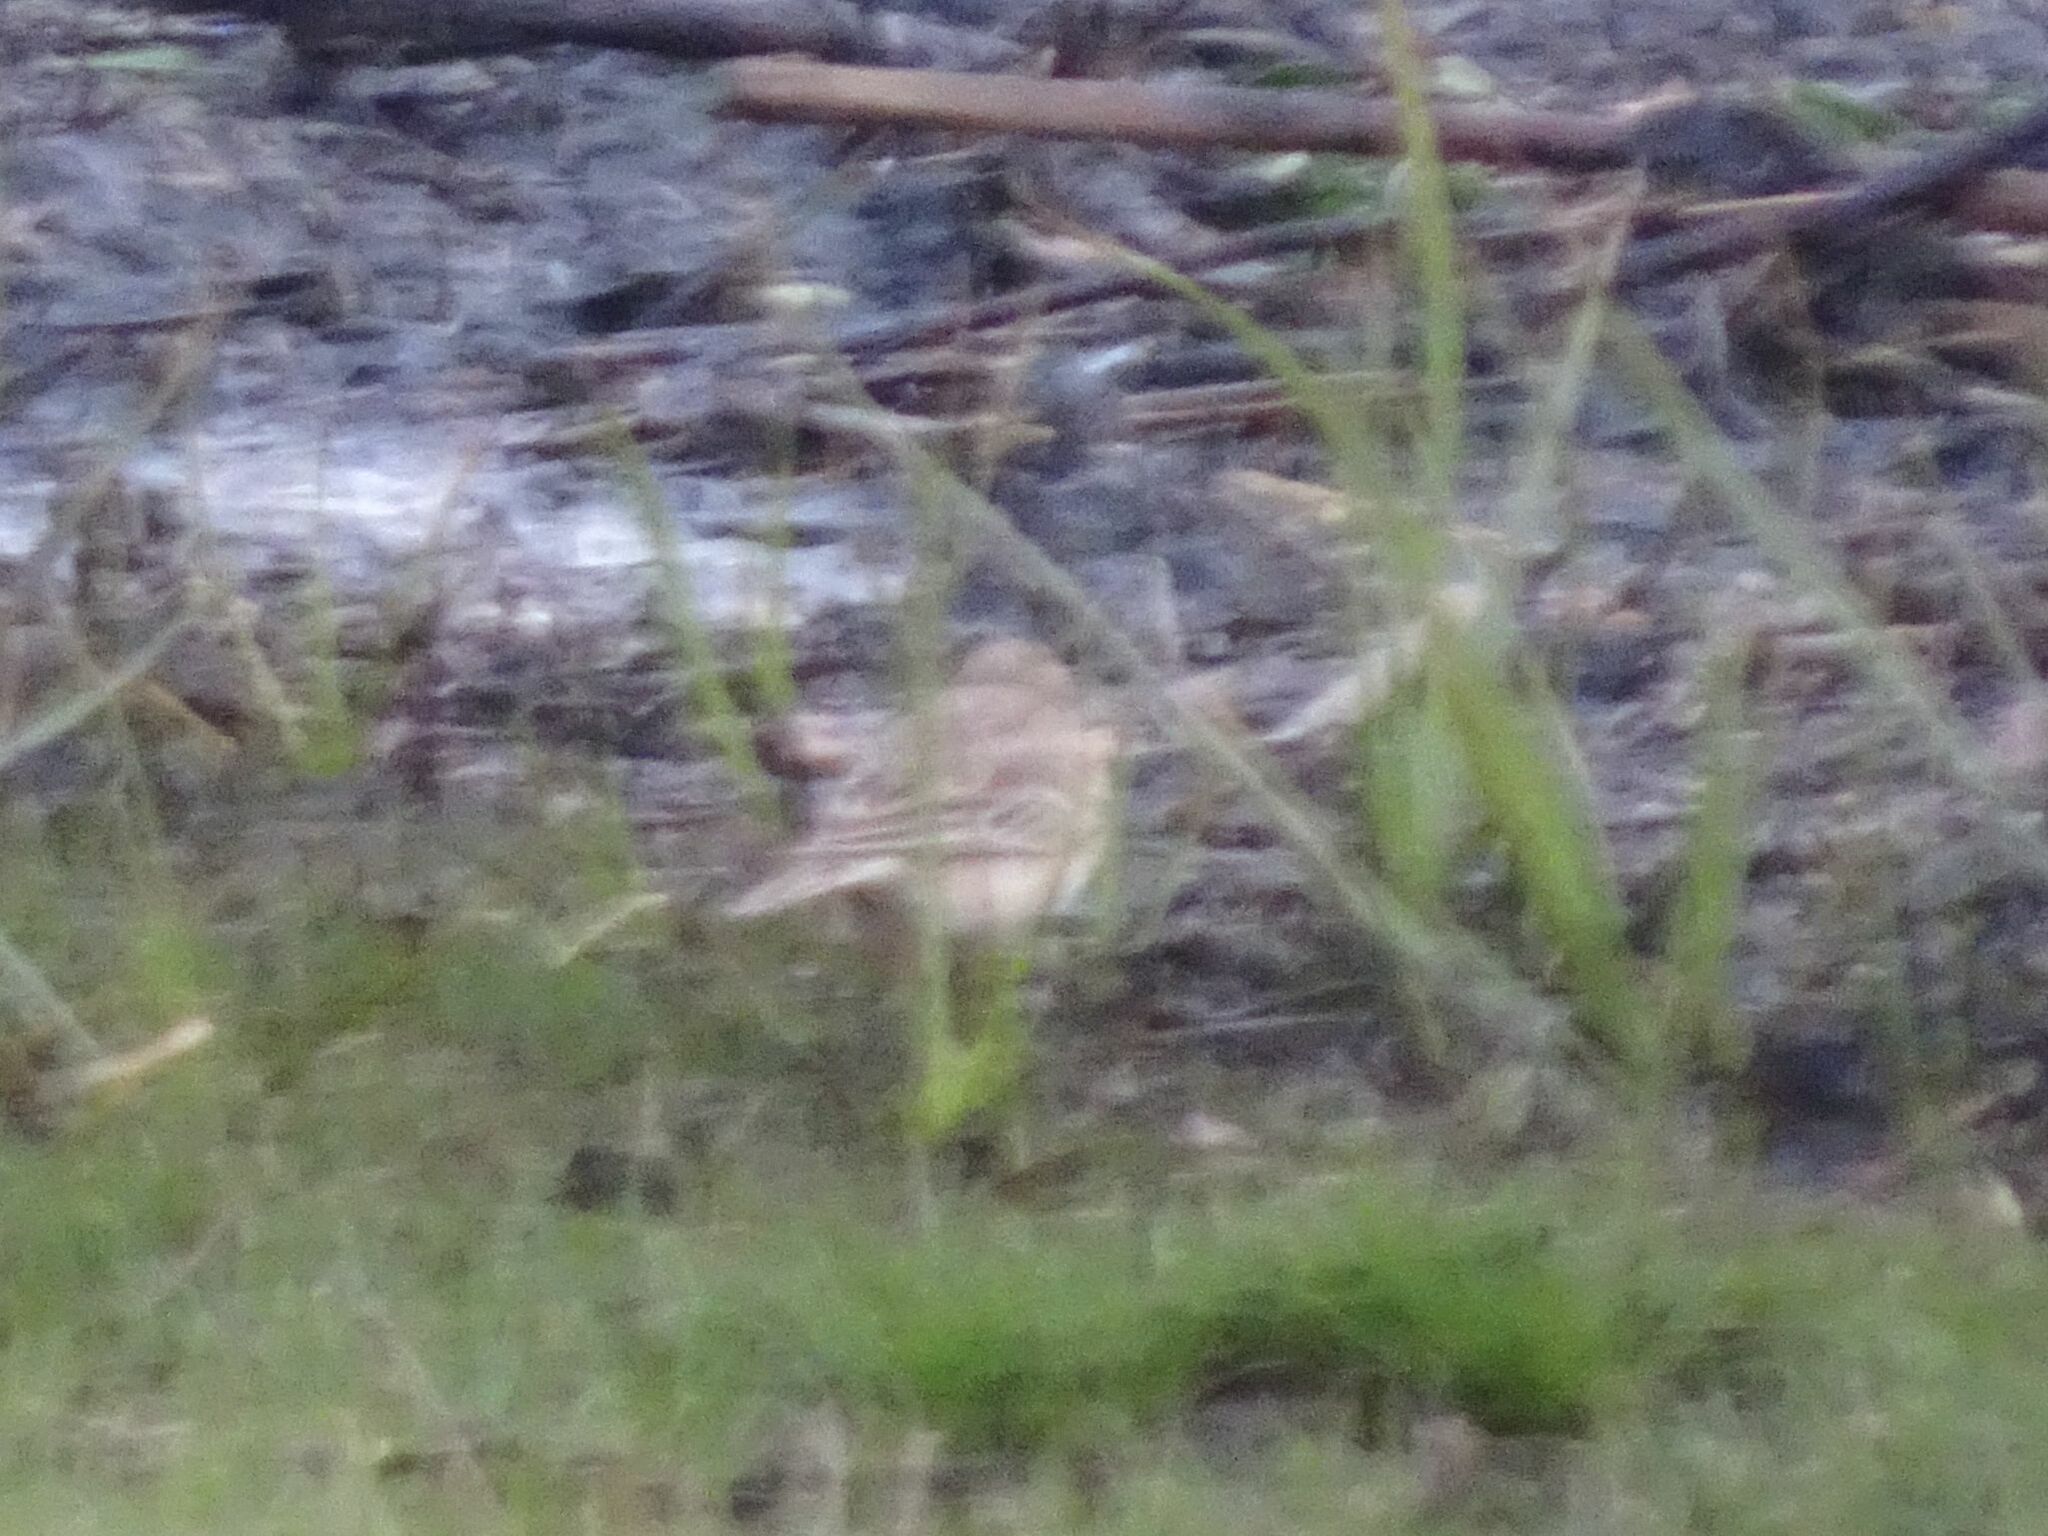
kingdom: Animalia
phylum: Chordata
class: Aves
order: Passeriformes
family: Motacillidae
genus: Anthus
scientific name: Anthus cinnamomeus
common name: African pipit
